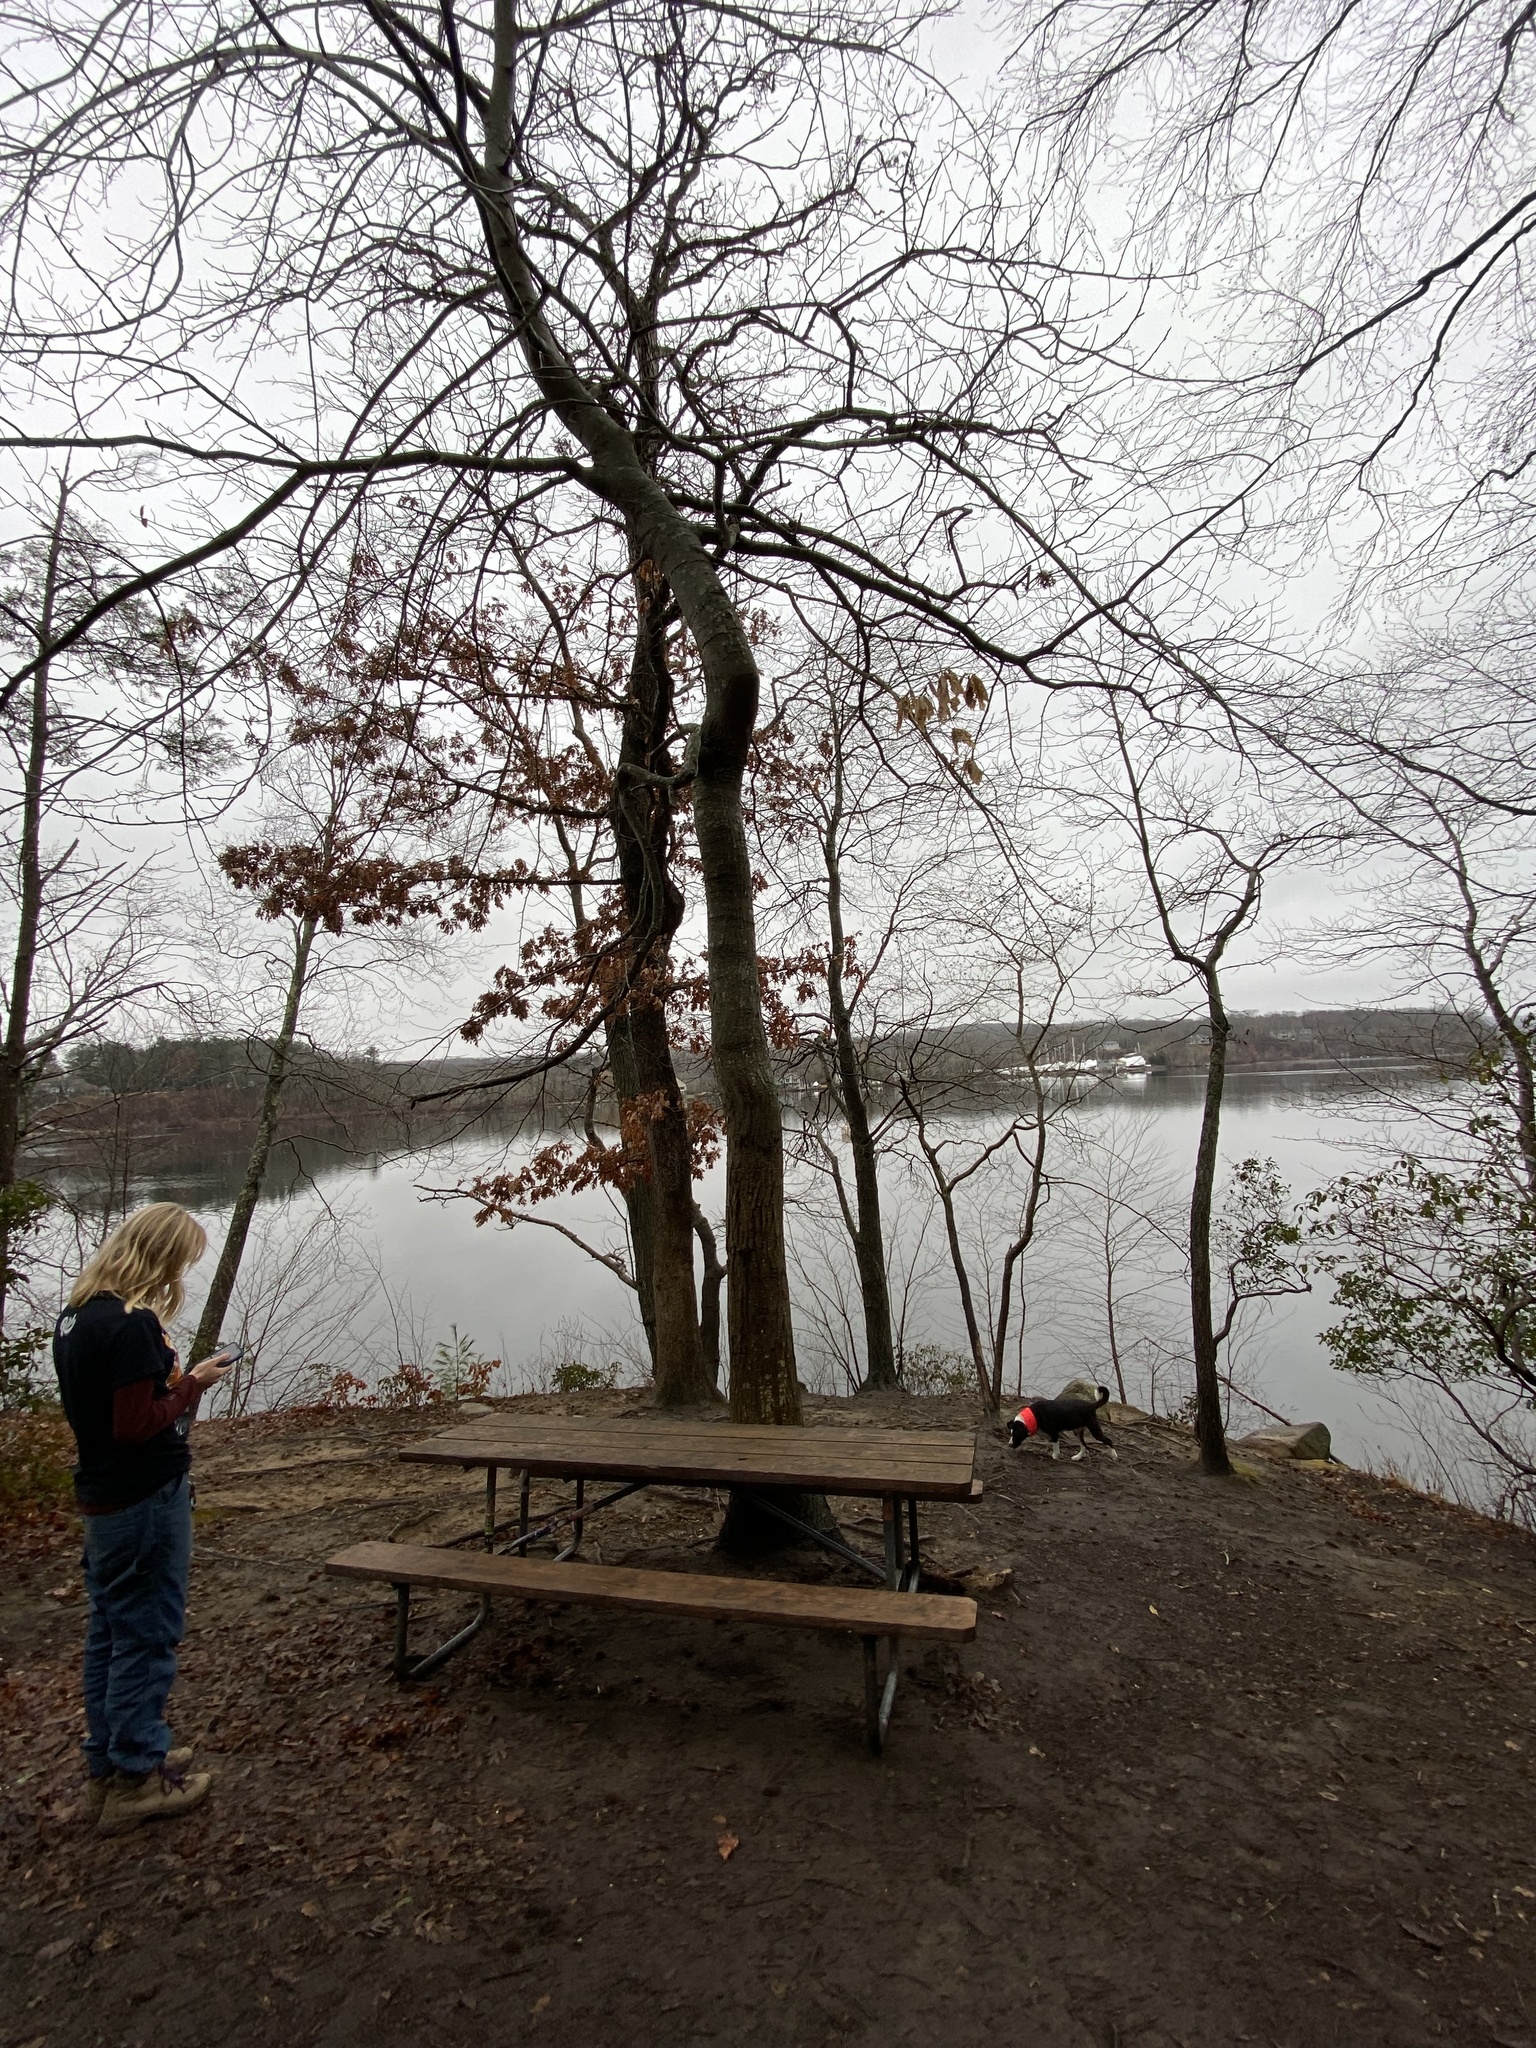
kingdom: Plantae
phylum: Tracheophyta
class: Magnoliopsida
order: Fagales
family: Fagaceae
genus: Castanea
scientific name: Castanea dentata
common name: American chestnut
